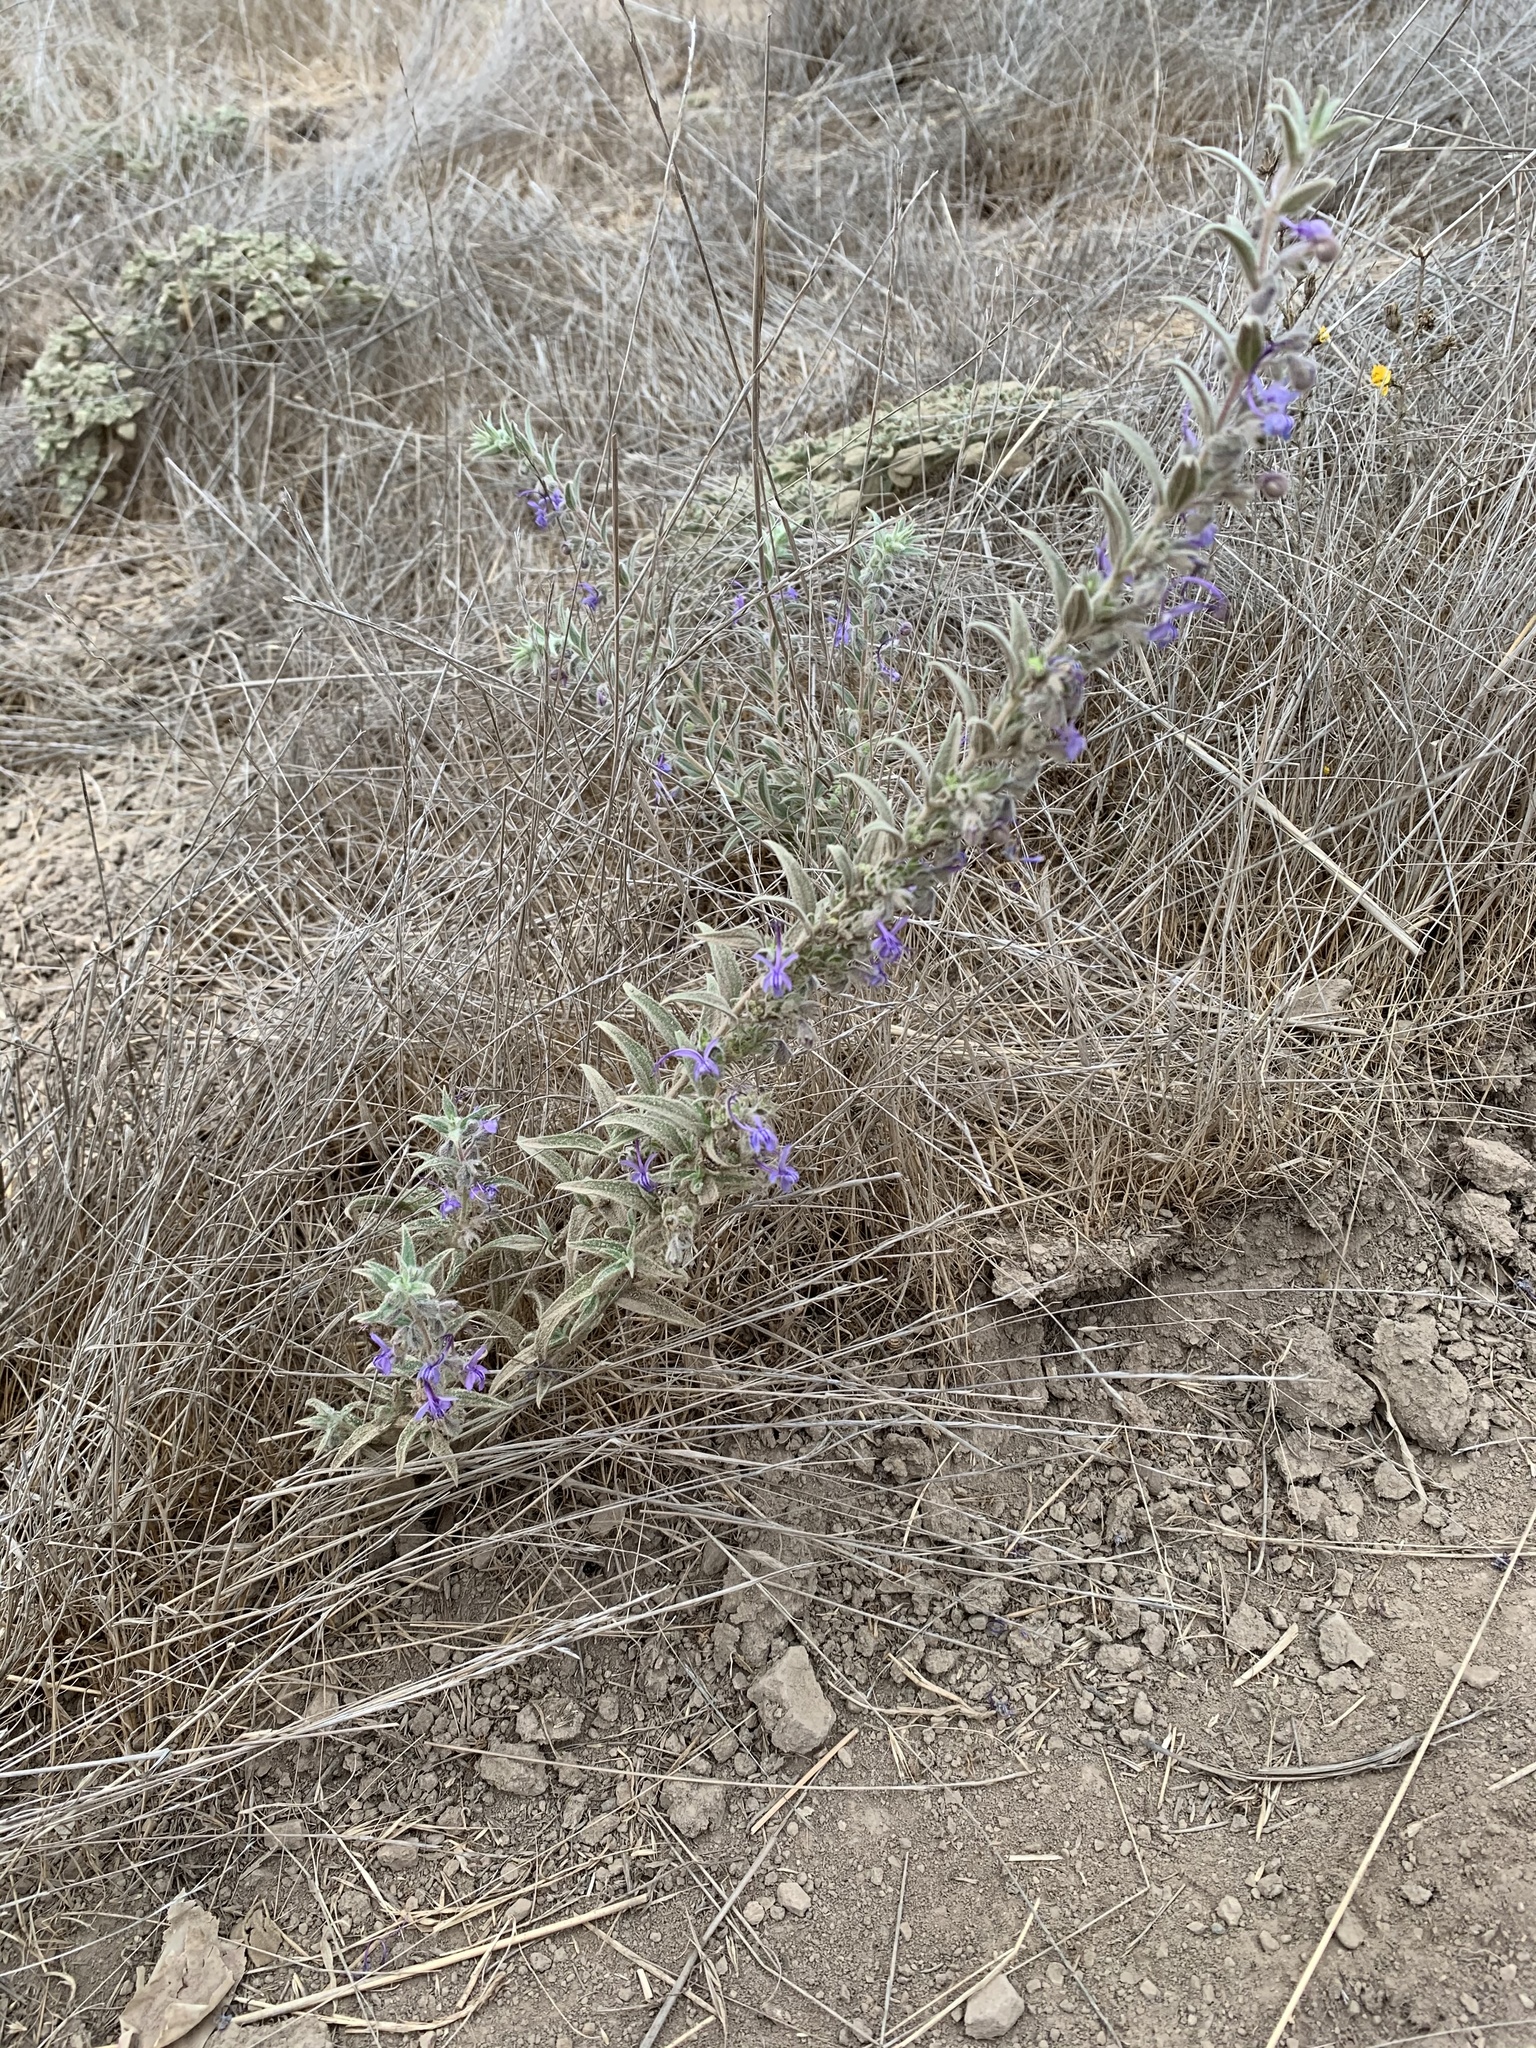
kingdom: Plantae
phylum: Tracheophyta
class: Magnoliopsida
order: Lamiales
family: Lamiaceae
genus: Trichostema
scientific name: Trichostema lanceolatum
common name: Vinegar-weed
